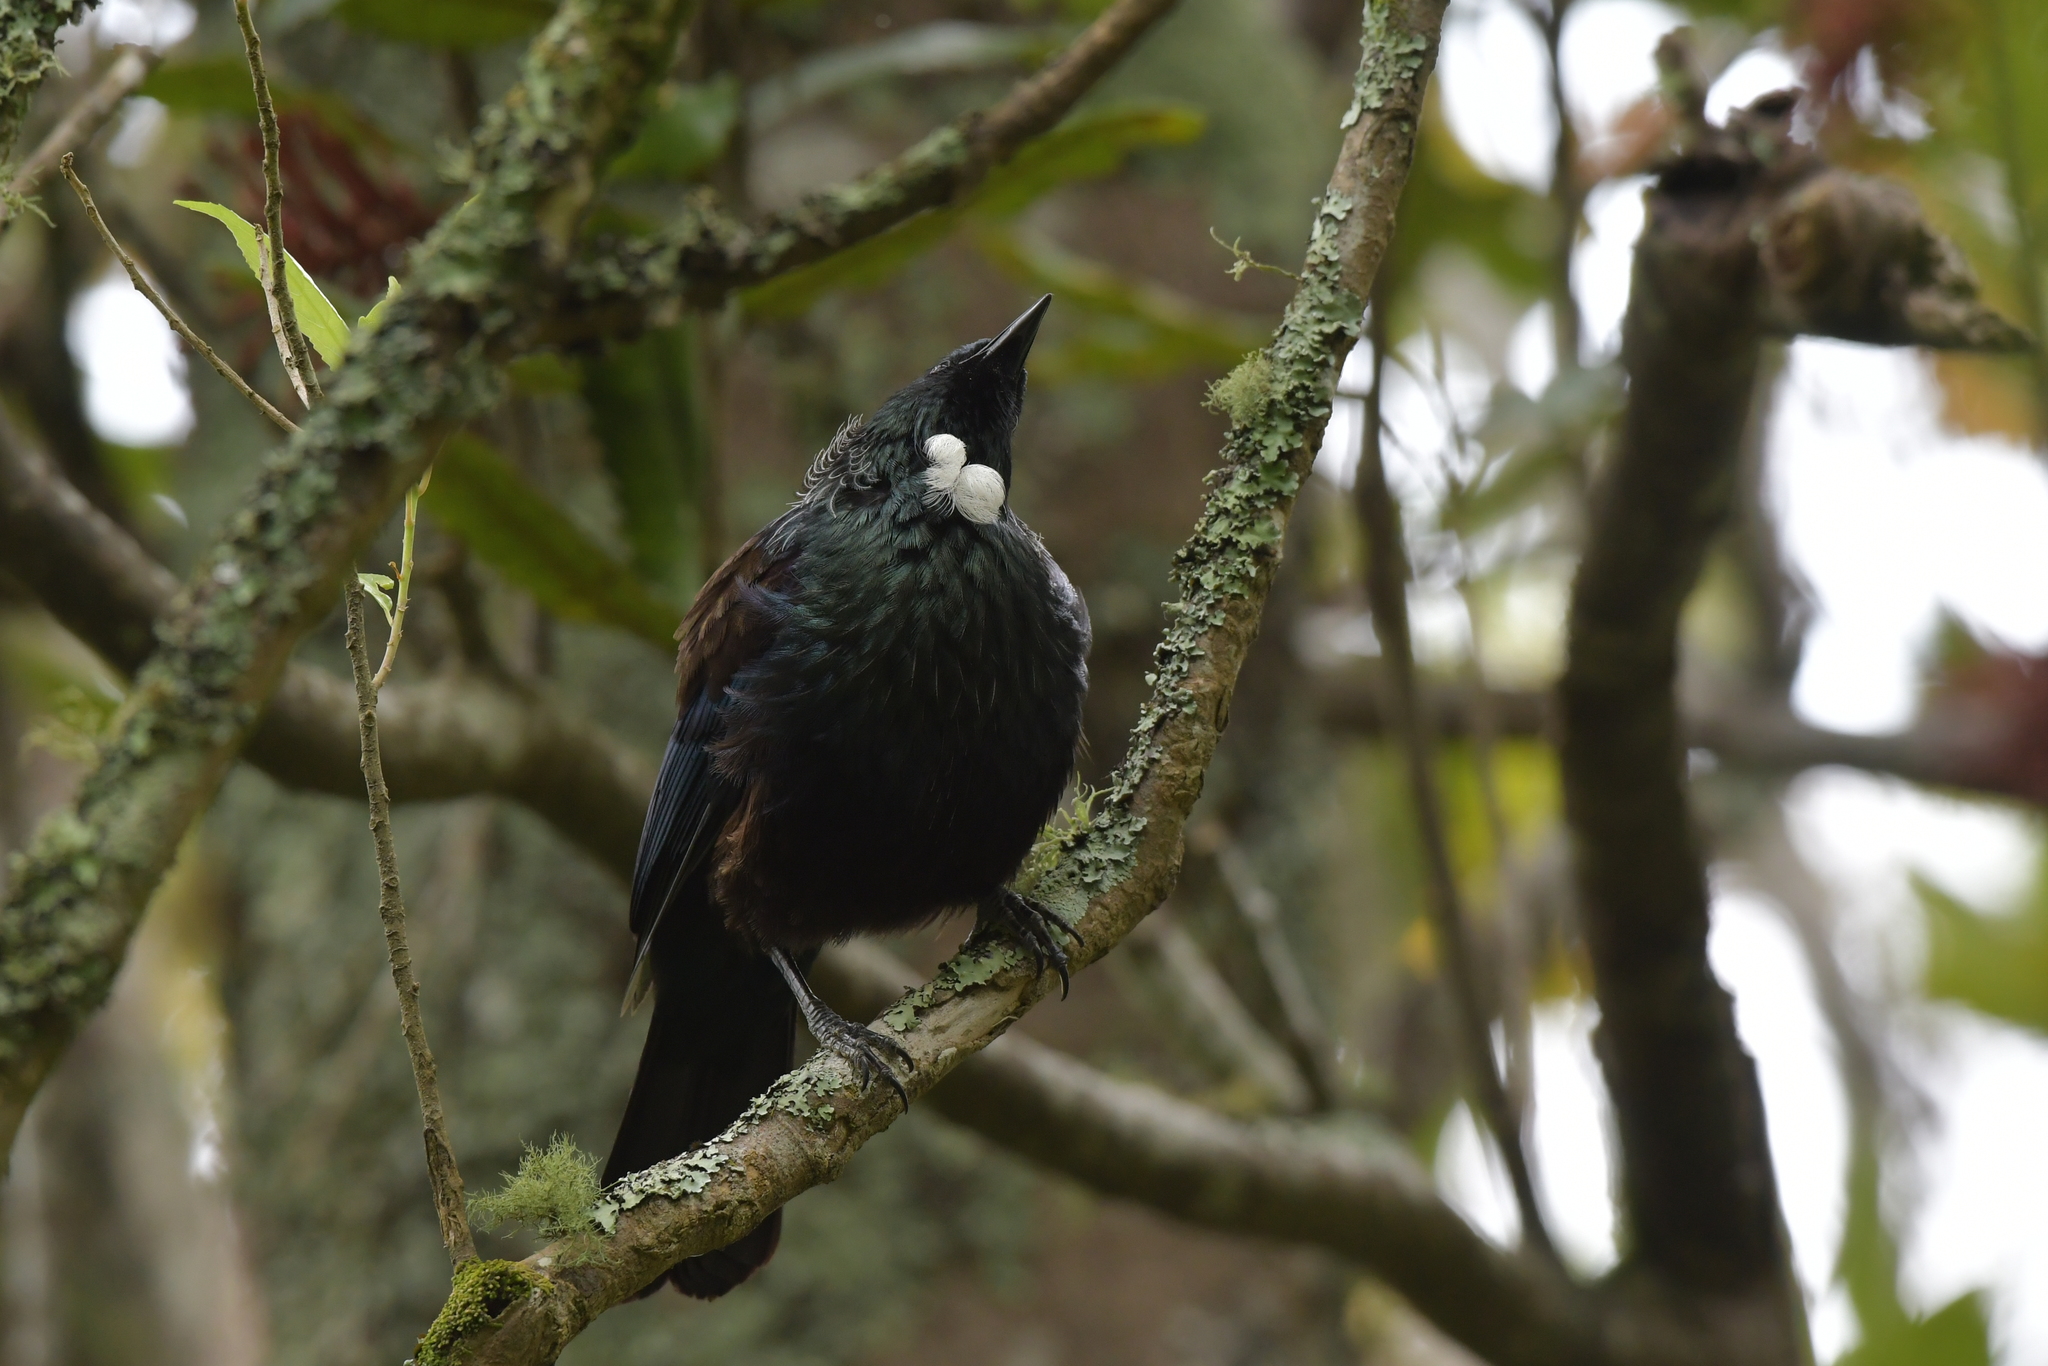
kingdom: Animalia
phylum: Chordata
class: Aves
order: Passeriformes
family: Meliphagidae
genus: Prosthemadera
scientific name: Prosthemadera novaeseelandiae
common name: Tui
